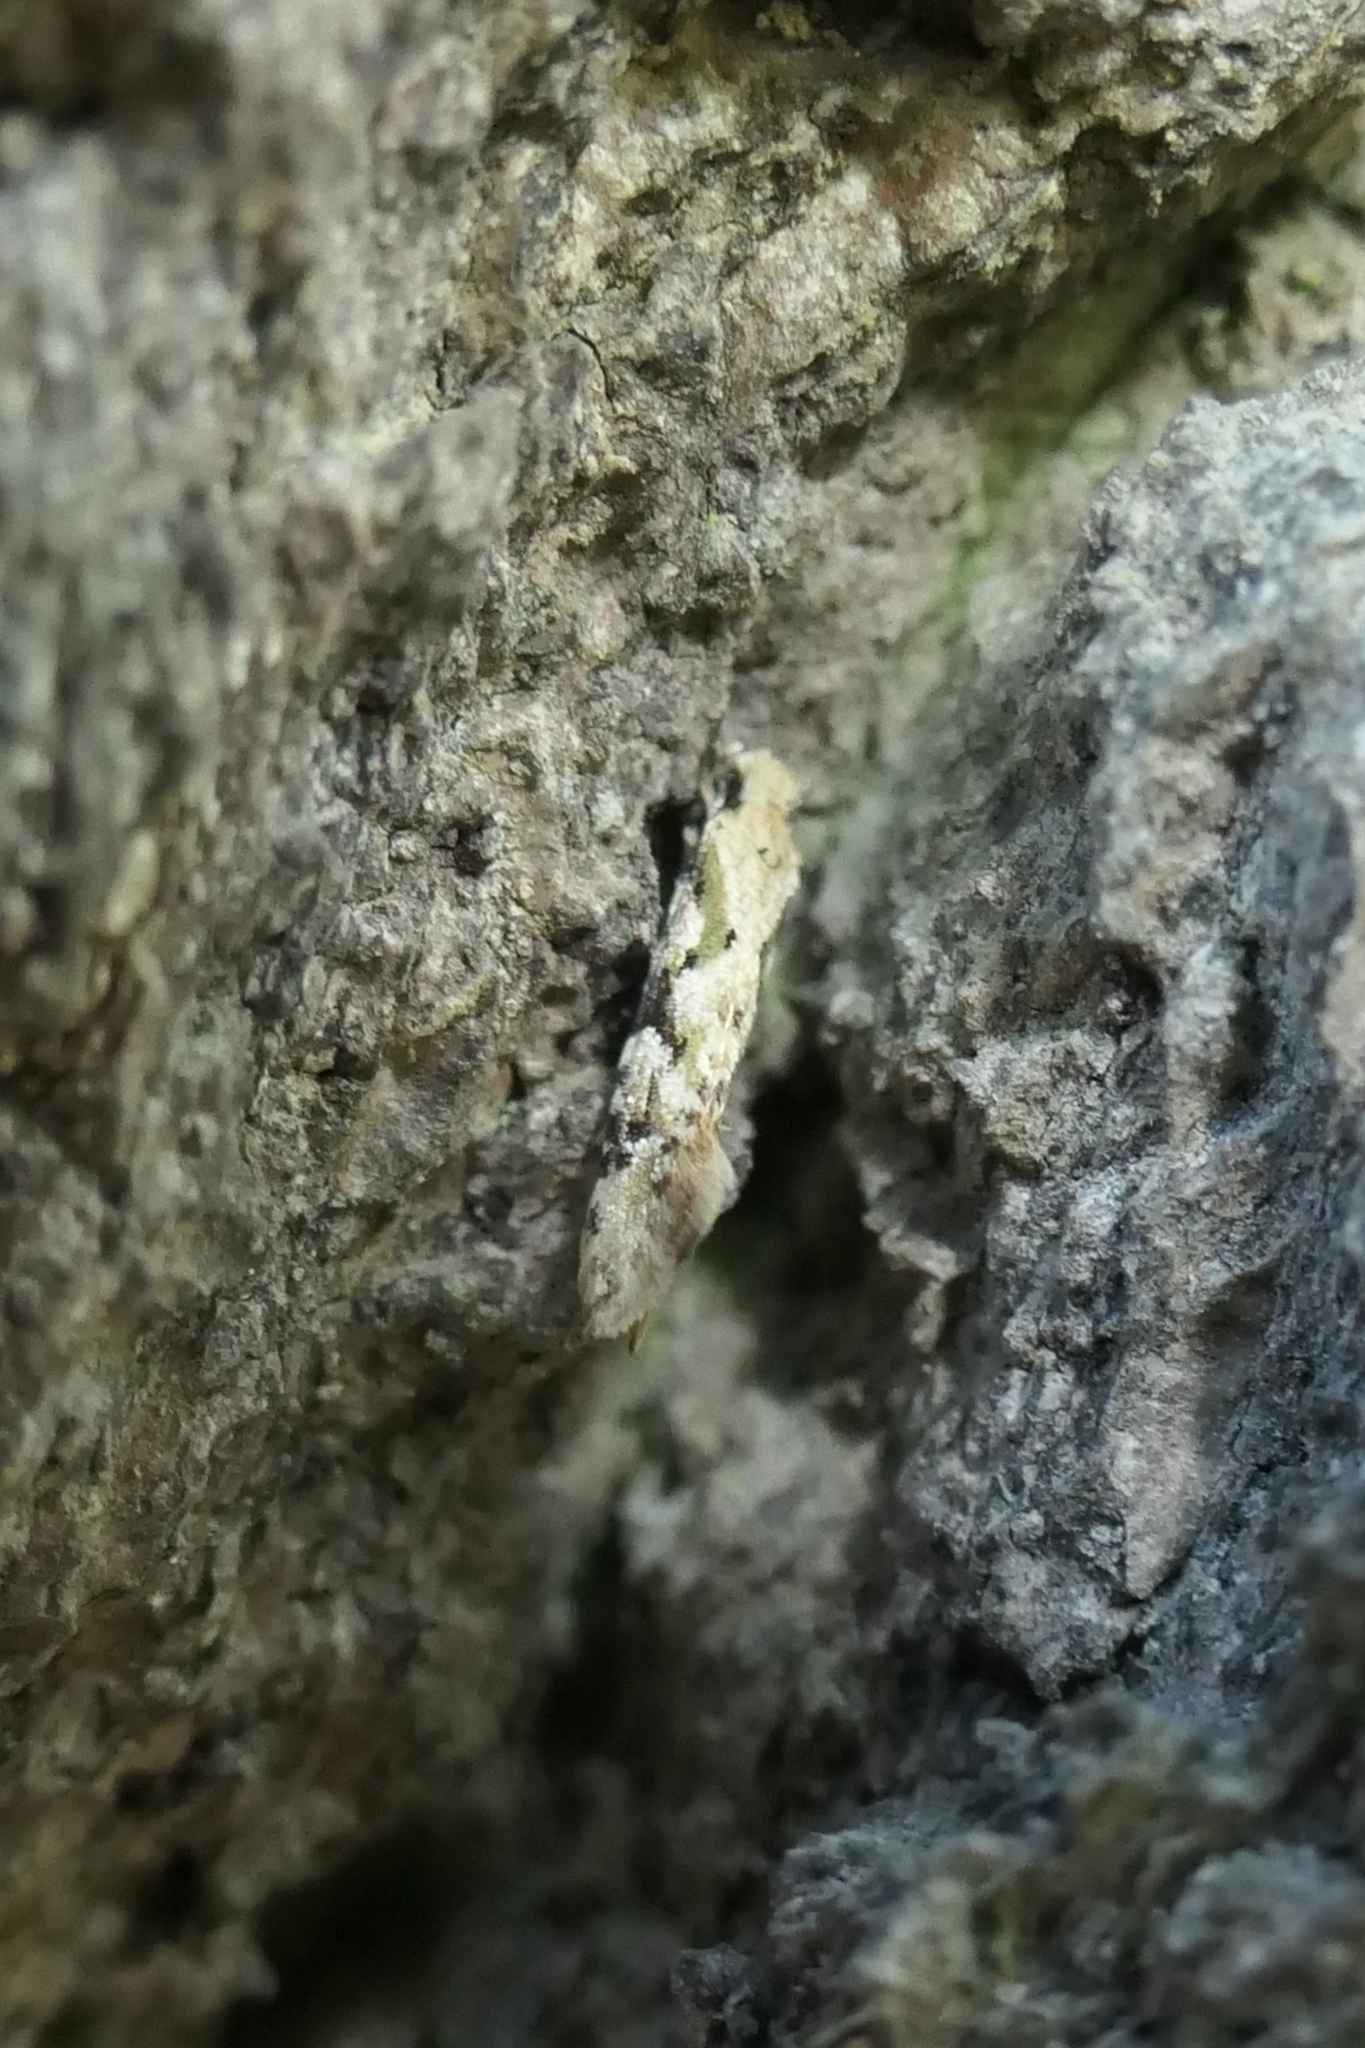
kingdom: Animalia
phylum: Arthropoda
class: Insecta
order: Lepidoptera
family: Tineidae
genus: Crypsitricha
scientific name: Crypsitricha mesotypa
